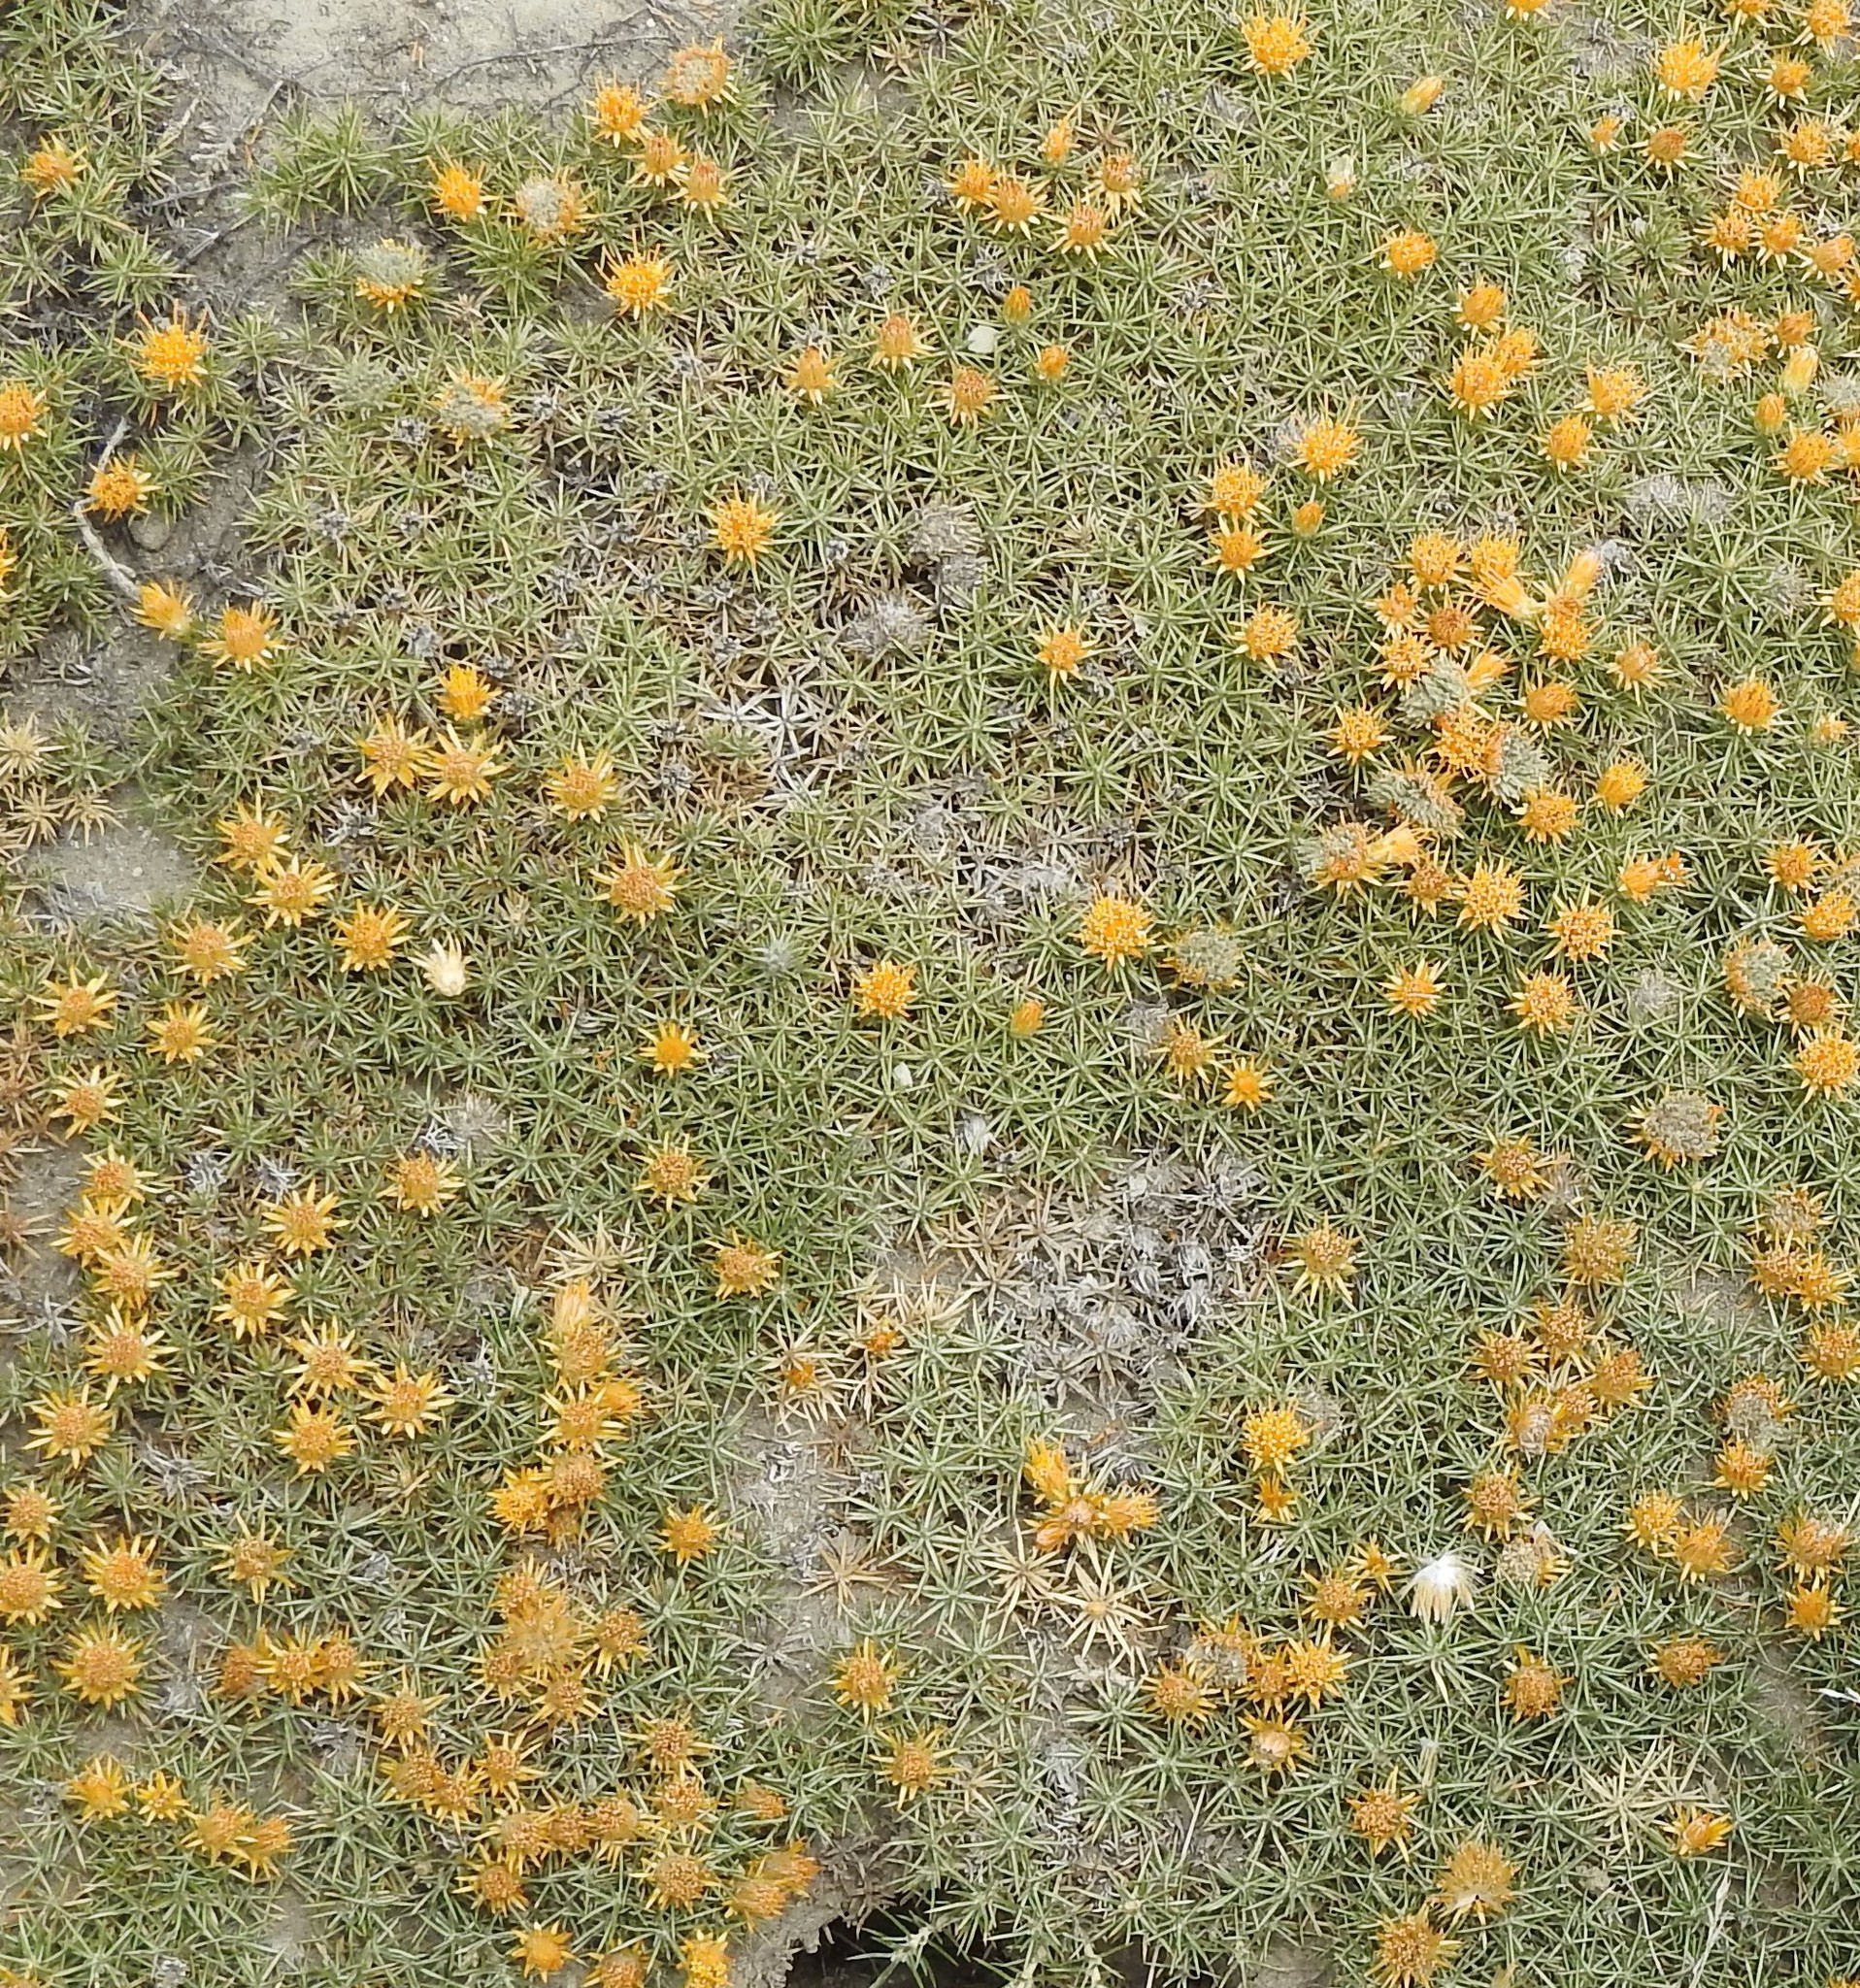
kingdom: Plantae
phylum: Tracheophyta
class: Magnoliopsida
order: Asterales
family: Asteraceae
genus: Chuquiraga
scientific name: Chuquiraga aurea
